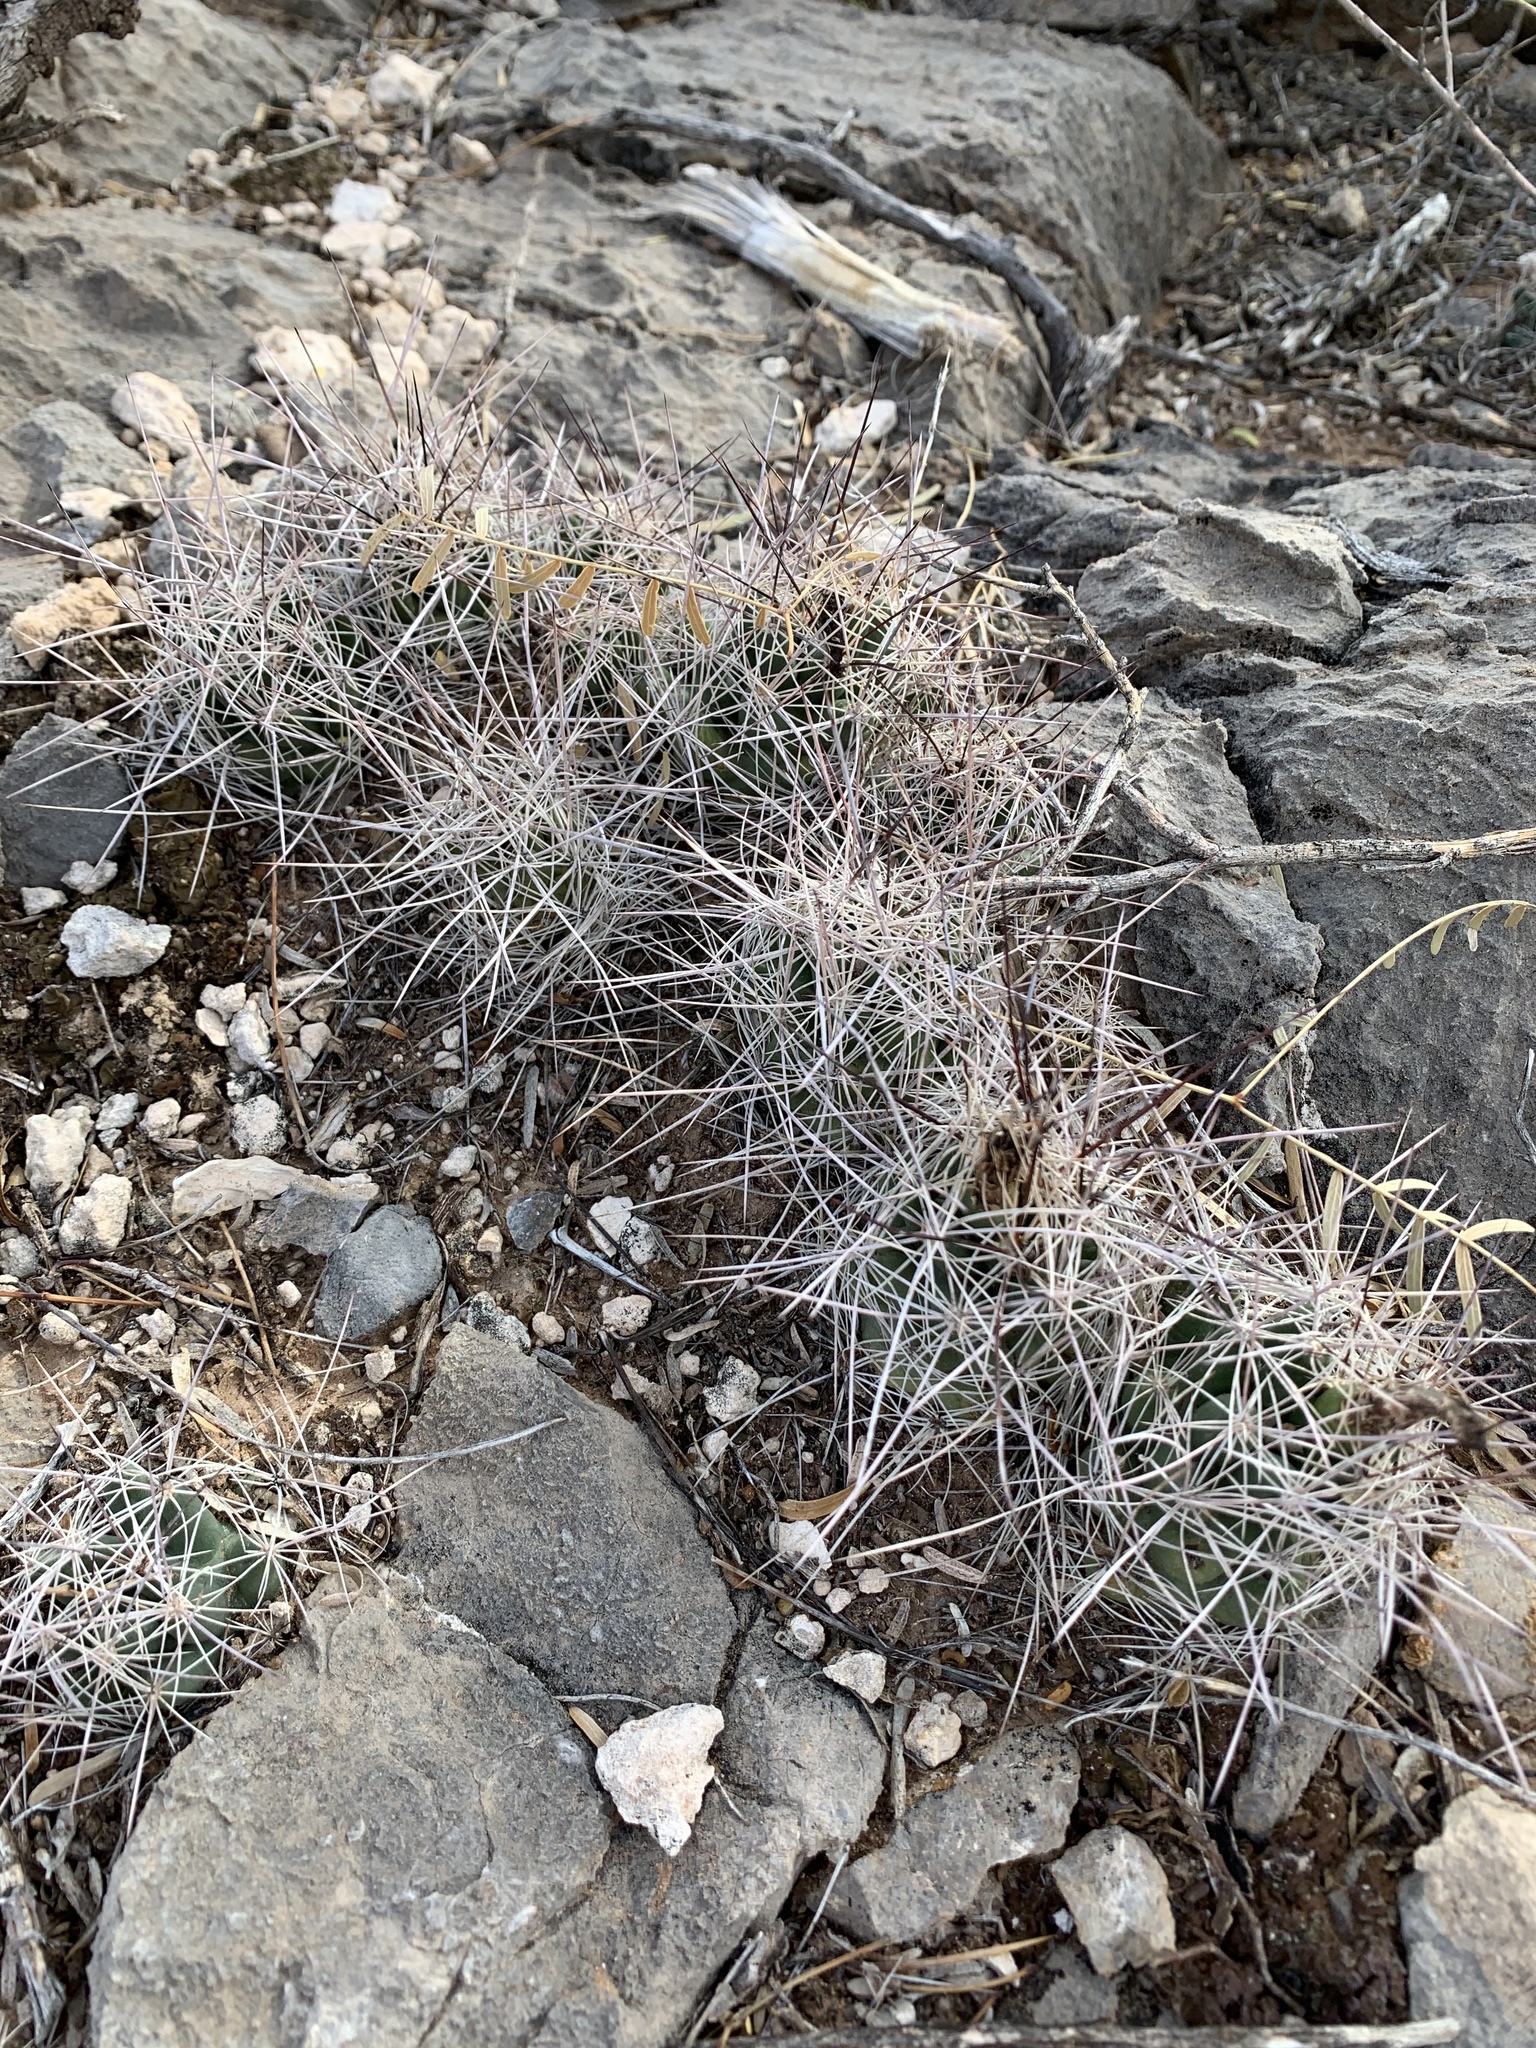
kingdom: Plantae
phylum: Tracheophyta
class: Magnoliopsida
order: Caryophyllales
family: Cactaceae
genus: Coryphantha
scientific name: Coryphantha macromeris
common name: Nipple beehive cactus
